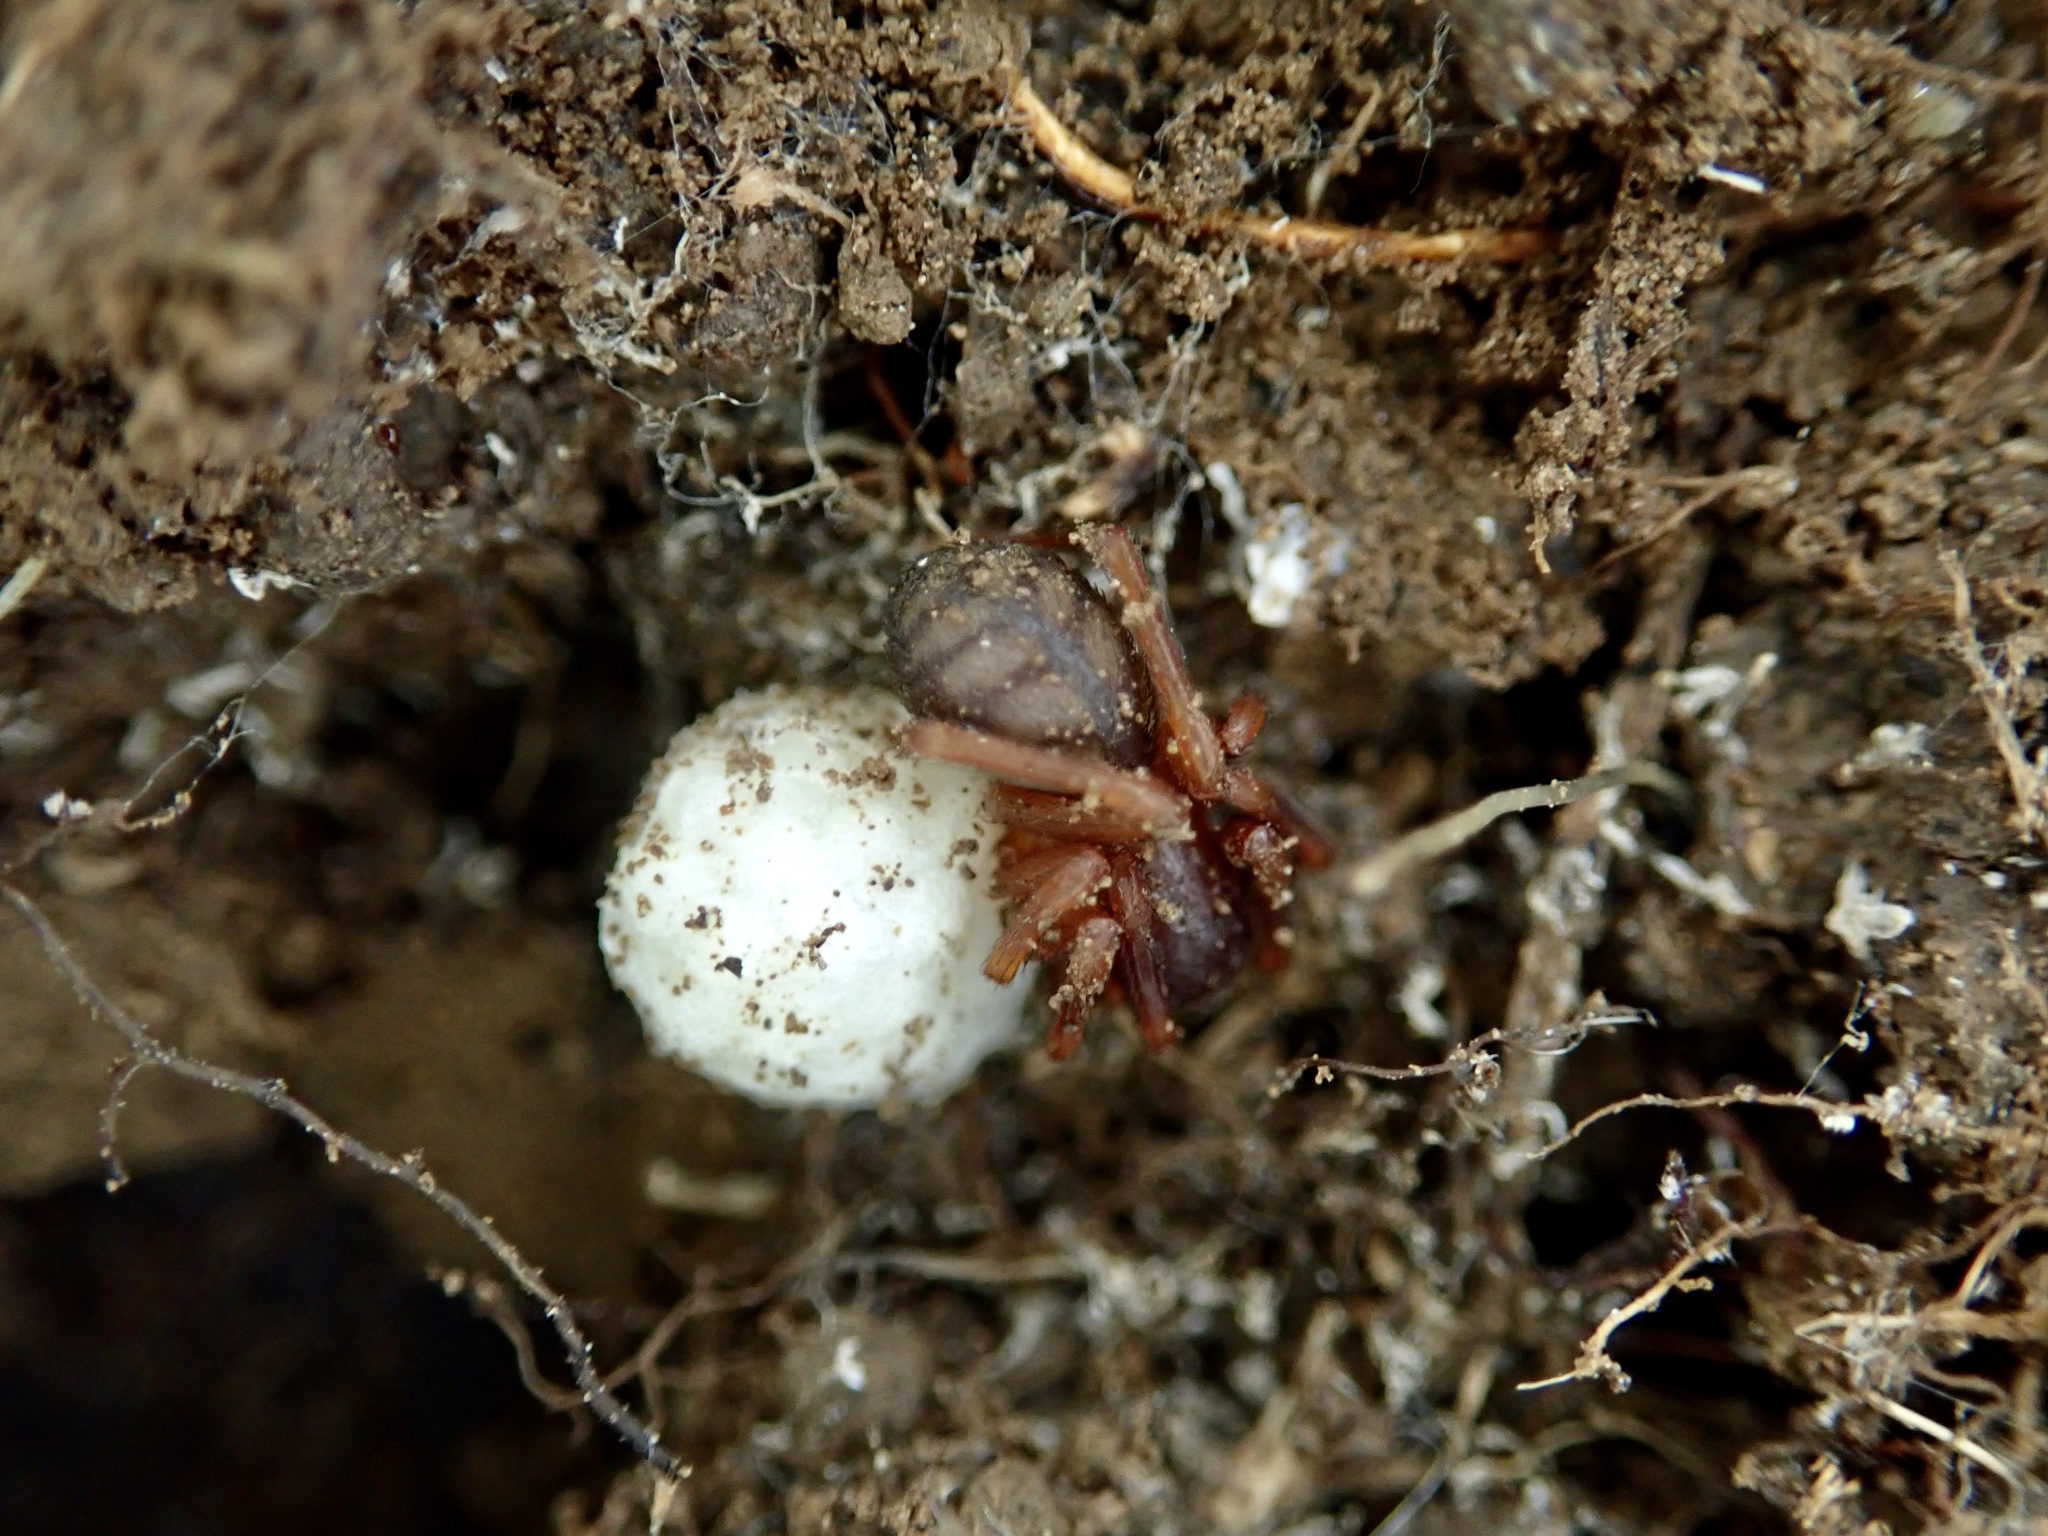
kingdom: Animalia
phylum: Arthropoda
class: Arachnida
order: Araneae
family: Periegopidae
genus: Periegops
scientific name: Periegops suterii
